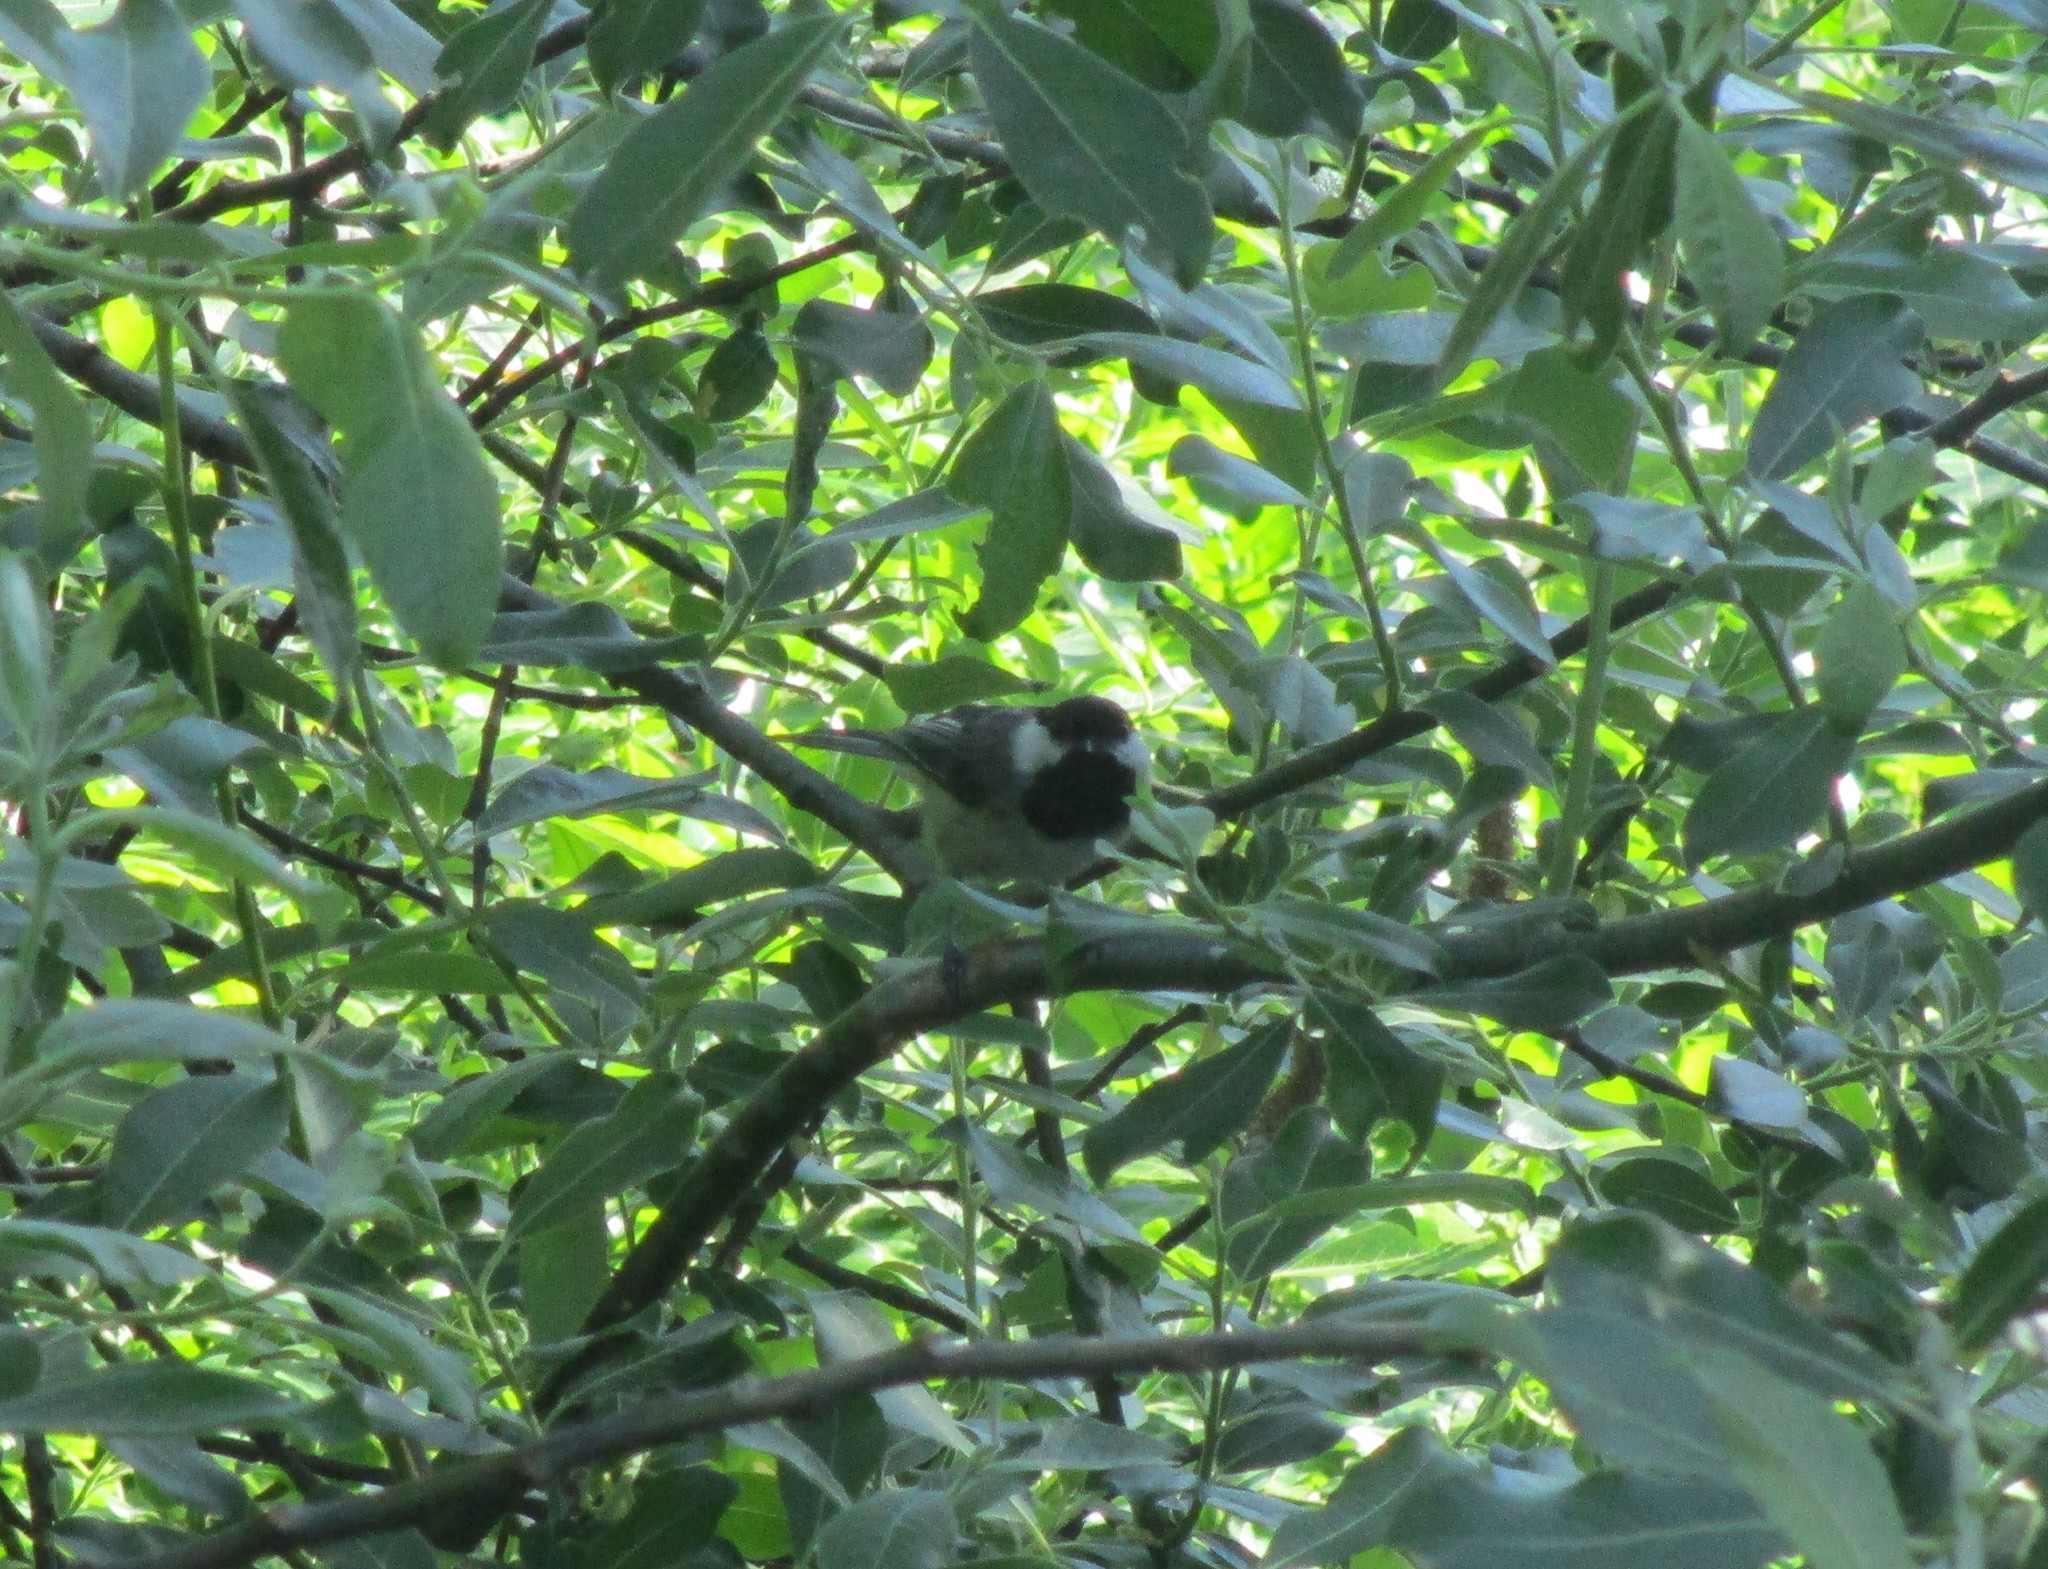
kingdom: Animalia
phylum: Chordata
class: Aves
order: Passeriformes
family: Paridae
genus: Poecile
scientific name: Poecile atricapillus
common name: Black-capped chickadee
